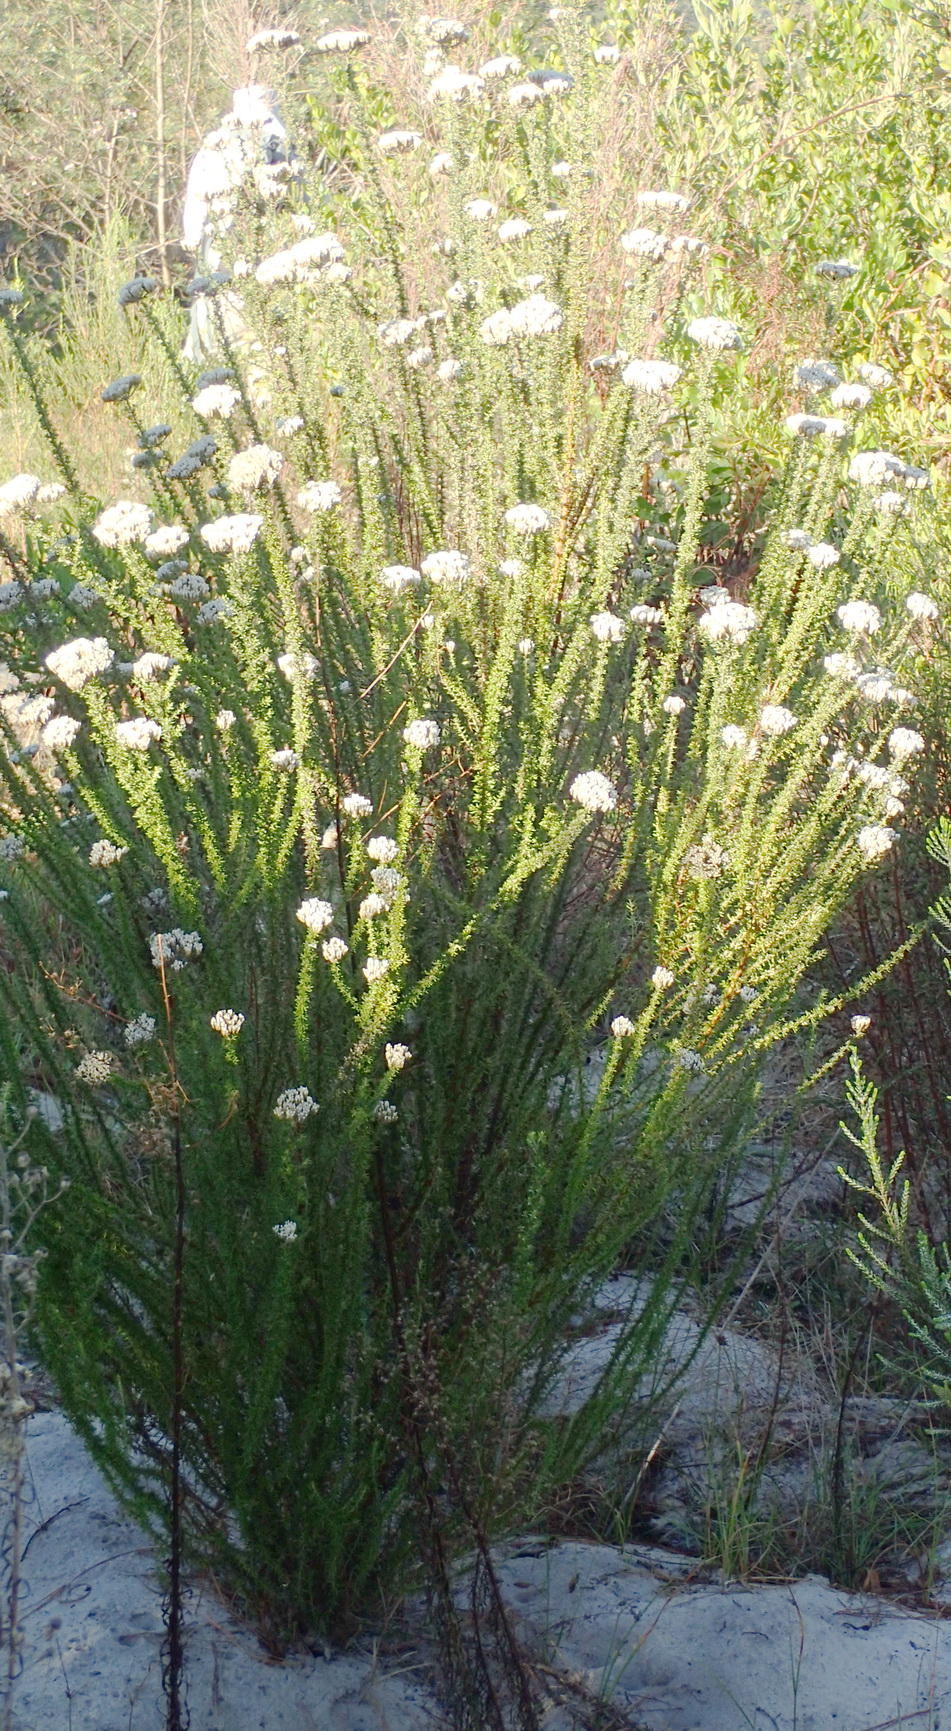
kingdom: Plantae
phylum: Tracheophyta
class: Magnoliopsida
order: Asterales
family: Asteraceae
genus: Metalasia
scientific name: Metalasia muricata
